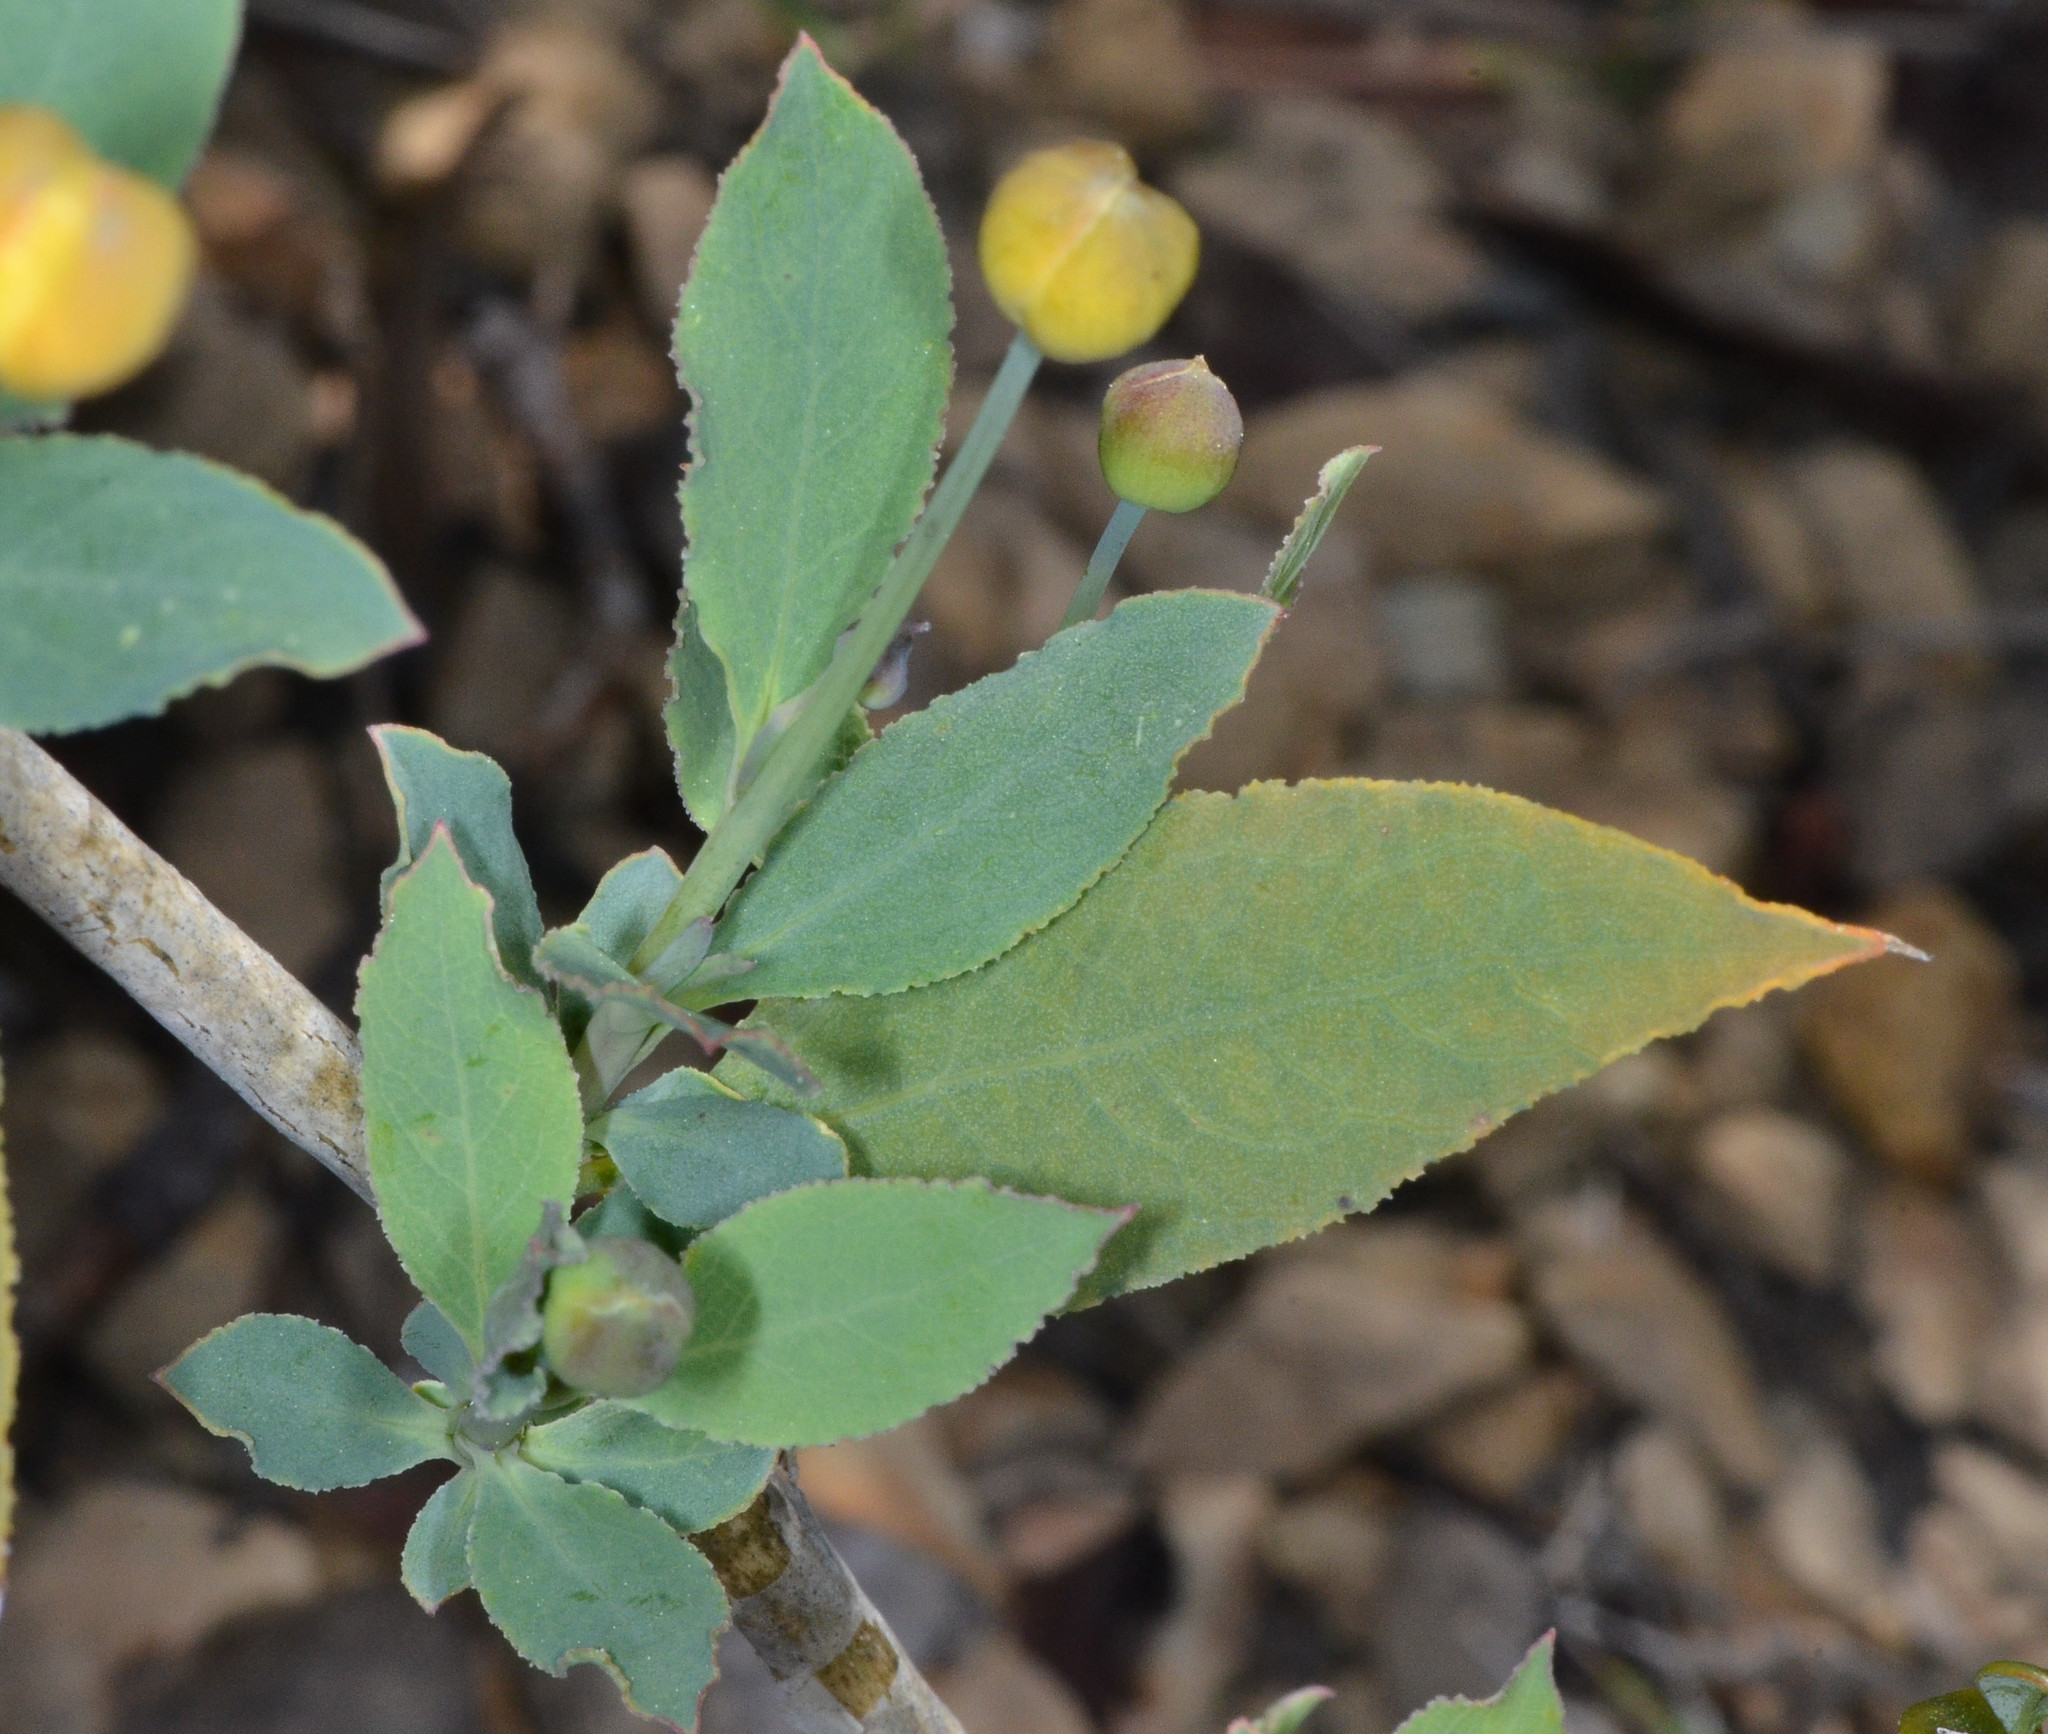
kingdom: Plantae
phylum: Tracheophyta
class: Magnoliopsida
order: Ranunculales
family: Papaveraceae
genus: Dendromecon
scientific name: Dendromecon rigida
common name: Tree poppy
